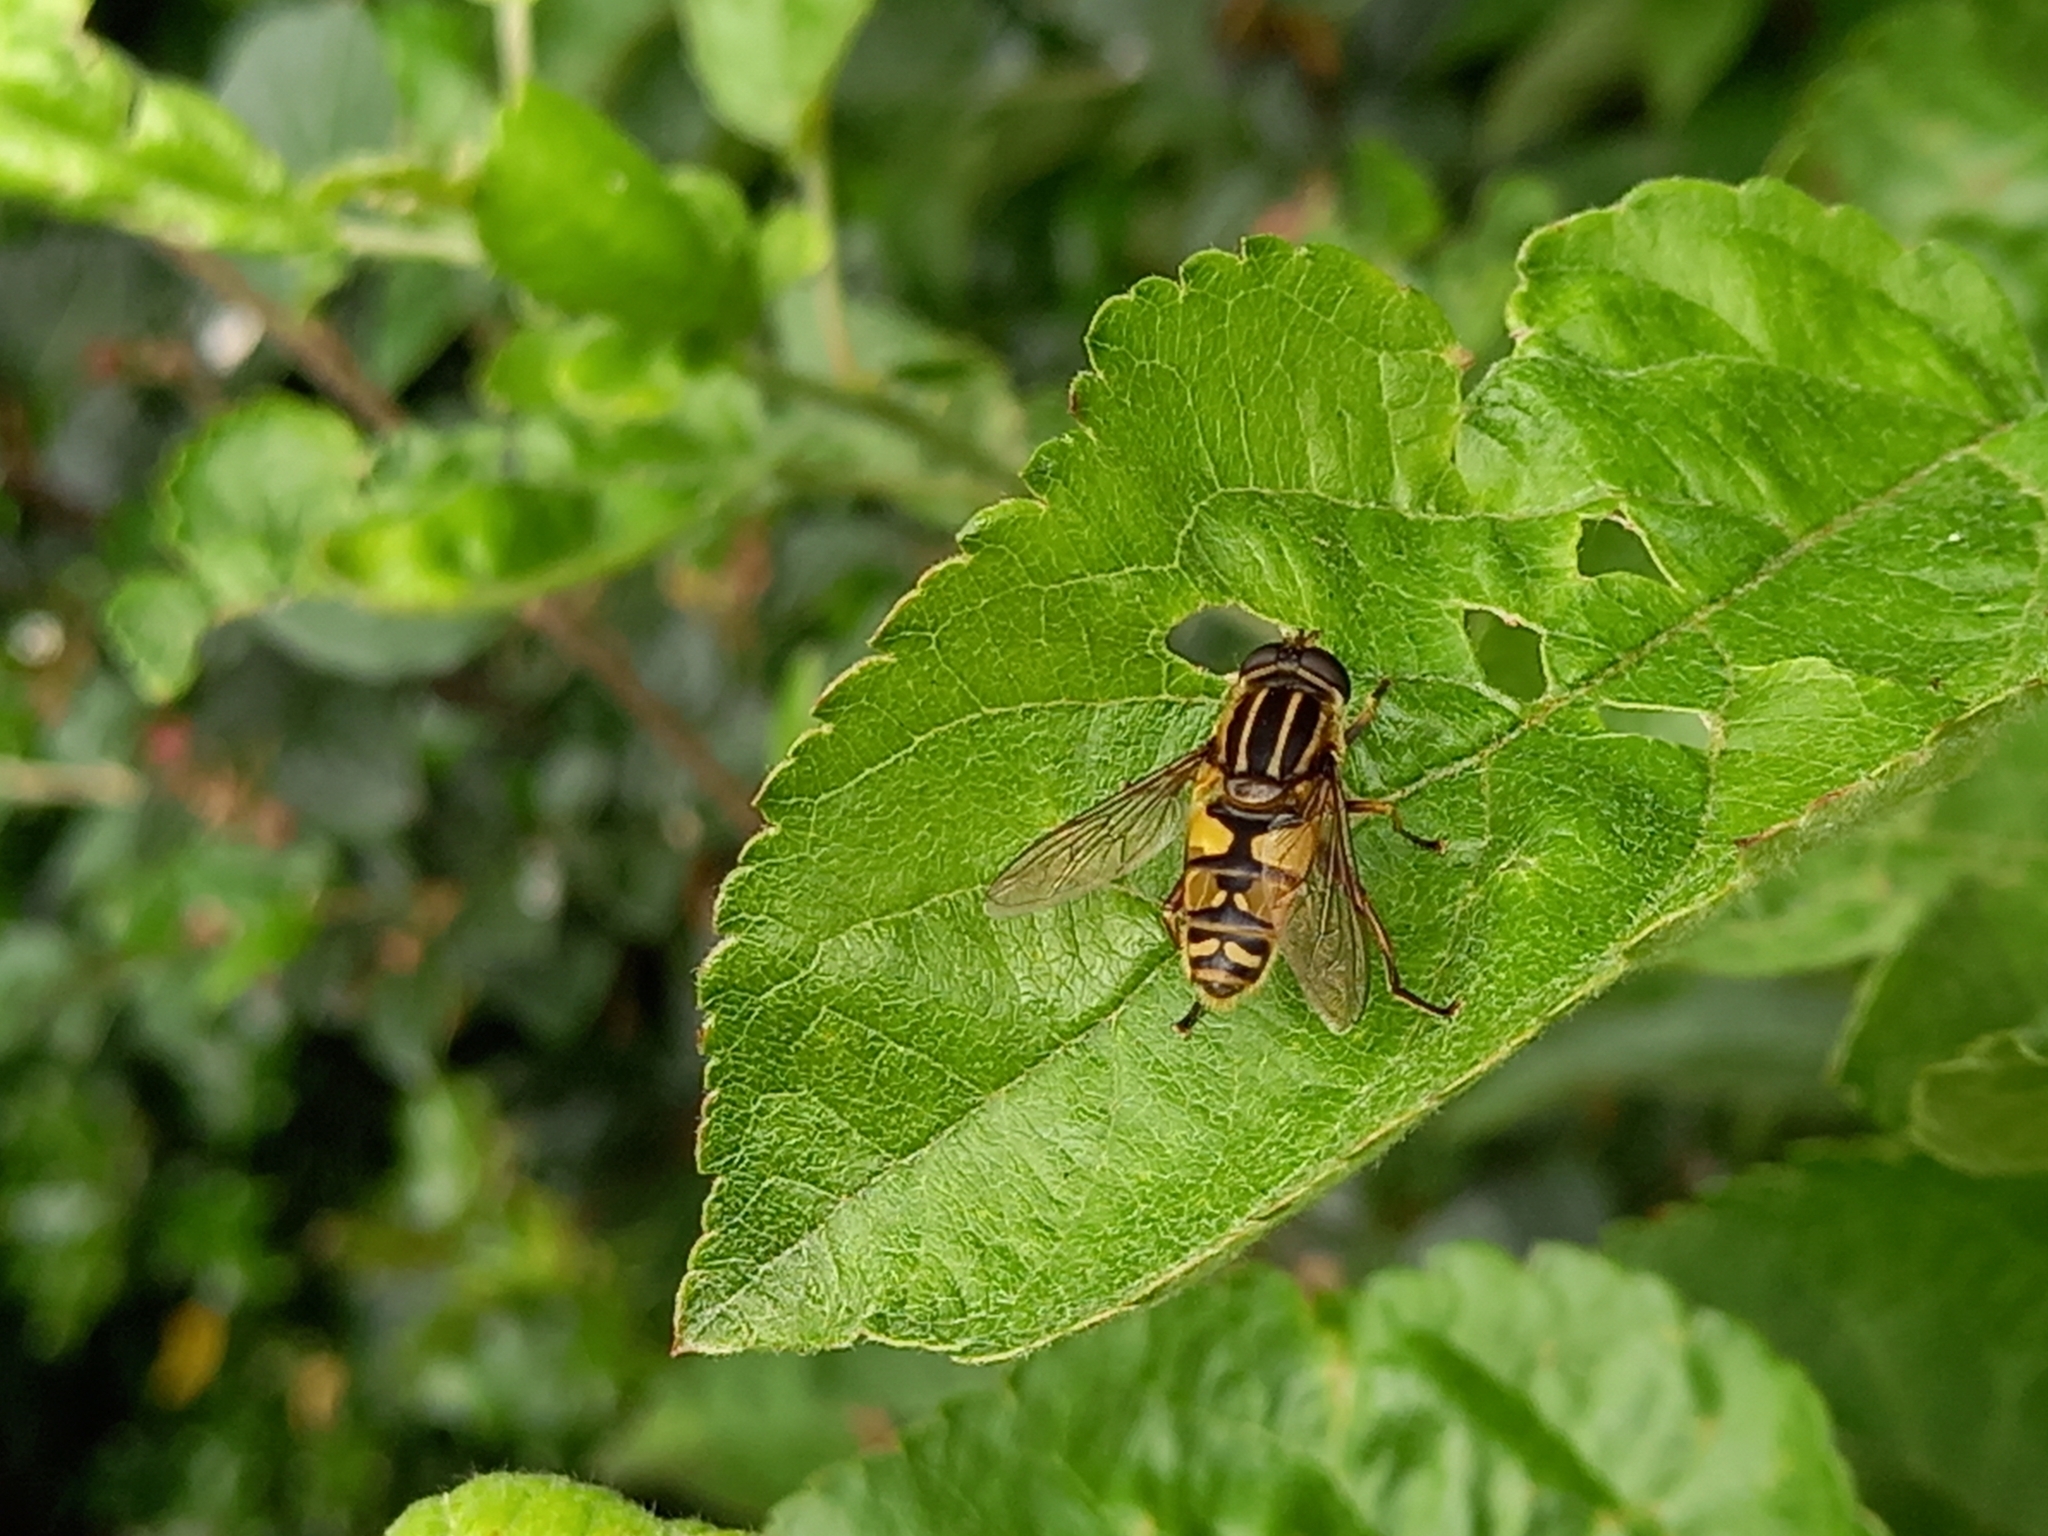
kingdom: Animalia
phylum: Arthropoda
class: Insecta
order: Diptera
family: Syrphidae
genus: Helophilus
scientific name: Helophilus pendulus
